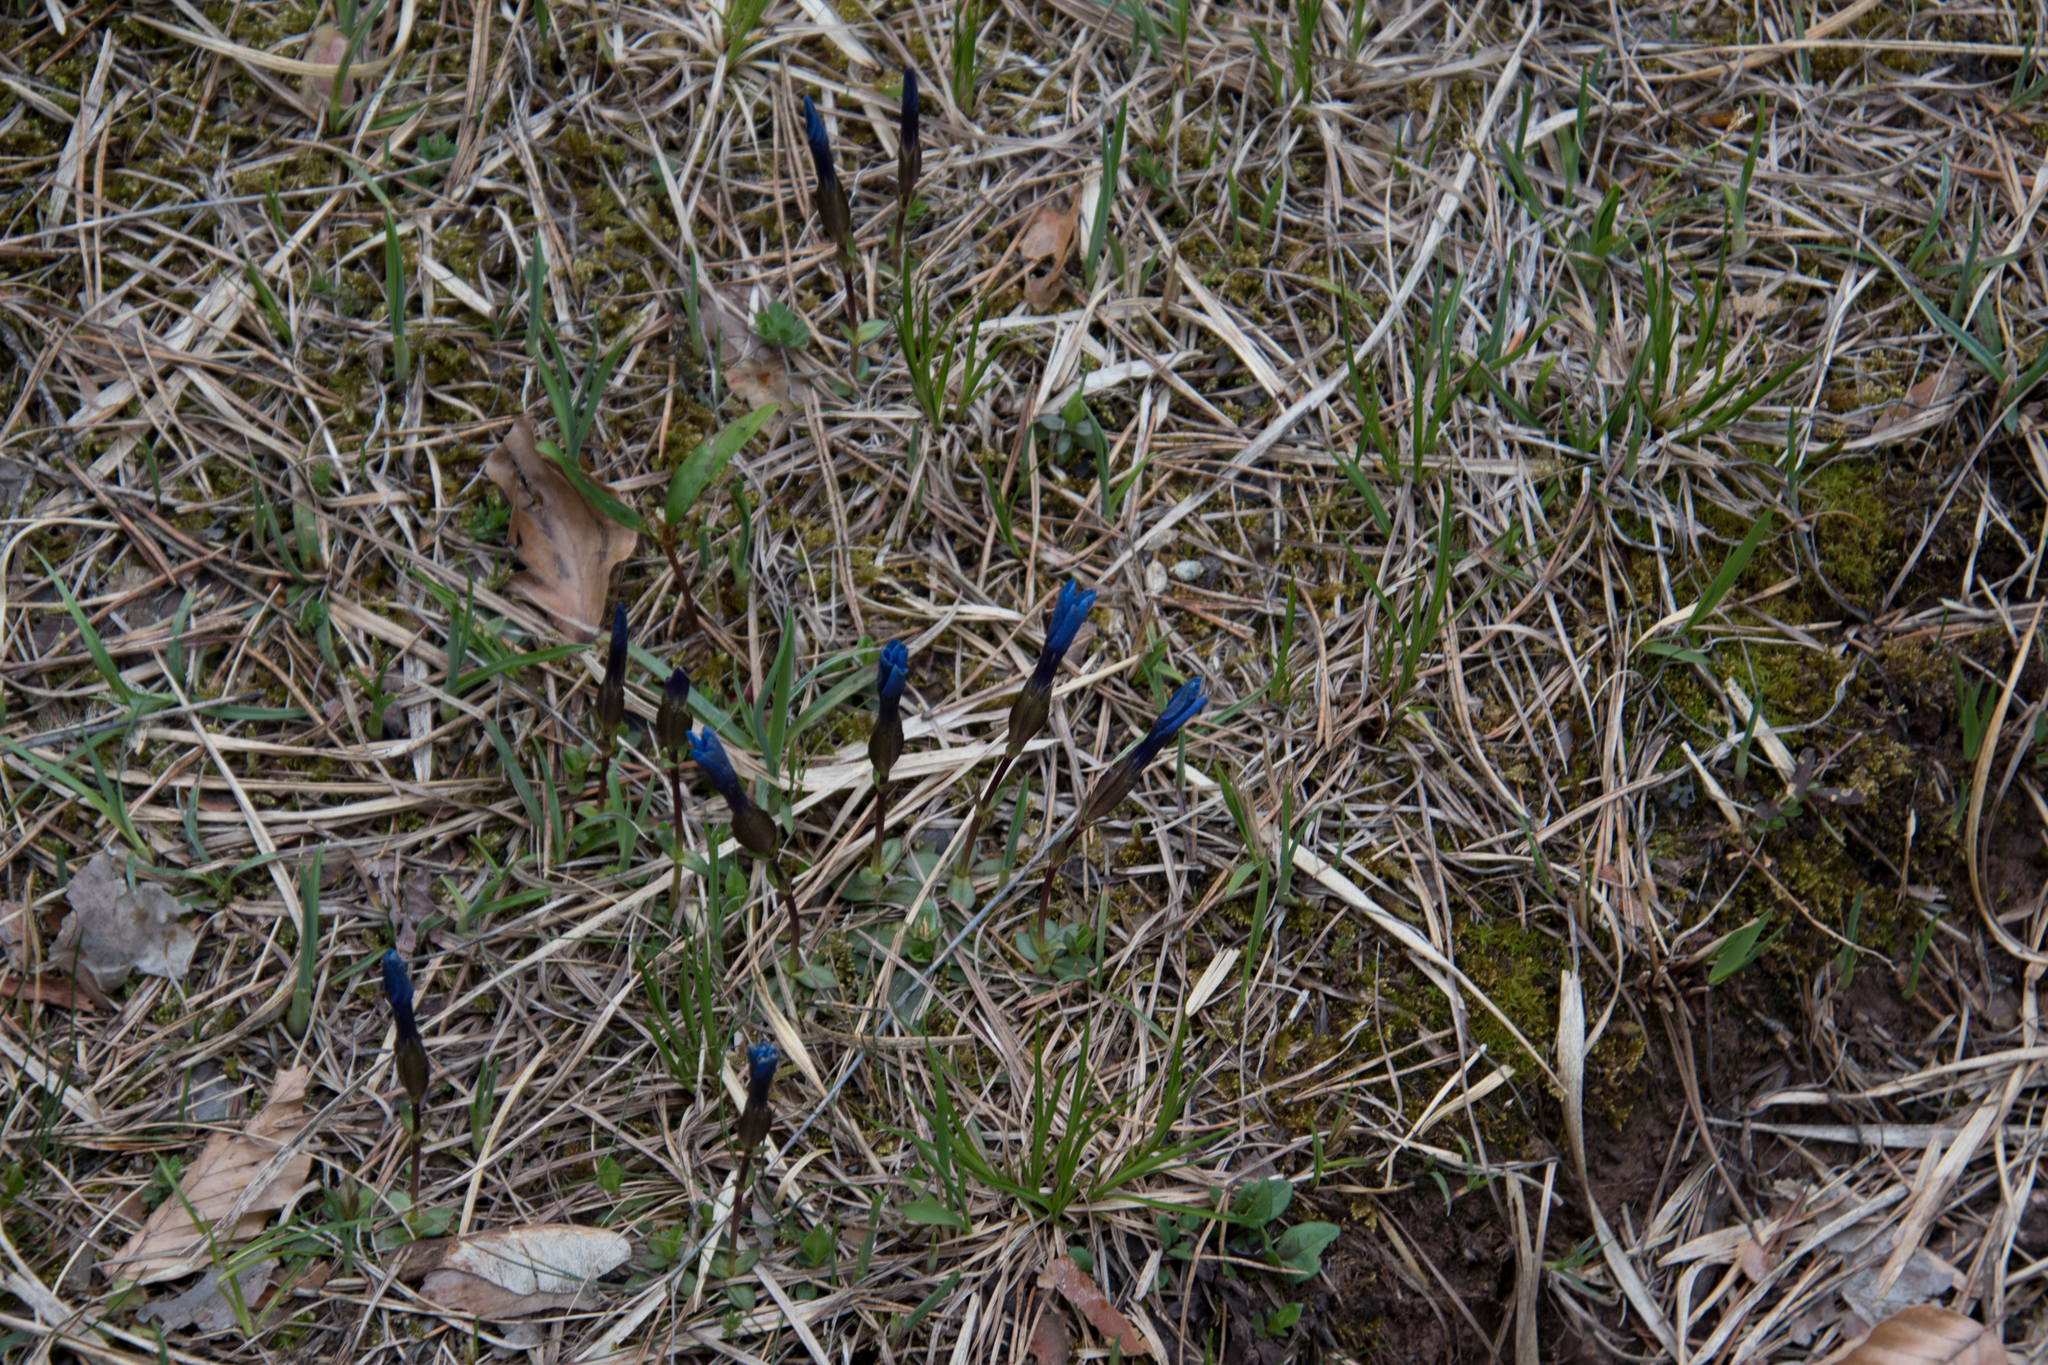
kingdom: Plantae
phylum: Tracheophyta
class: Magnoliopsida
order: Gentianales
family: Gentianaceae
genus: Gentiana
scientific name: Gentiana verna
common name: Spring gentian
